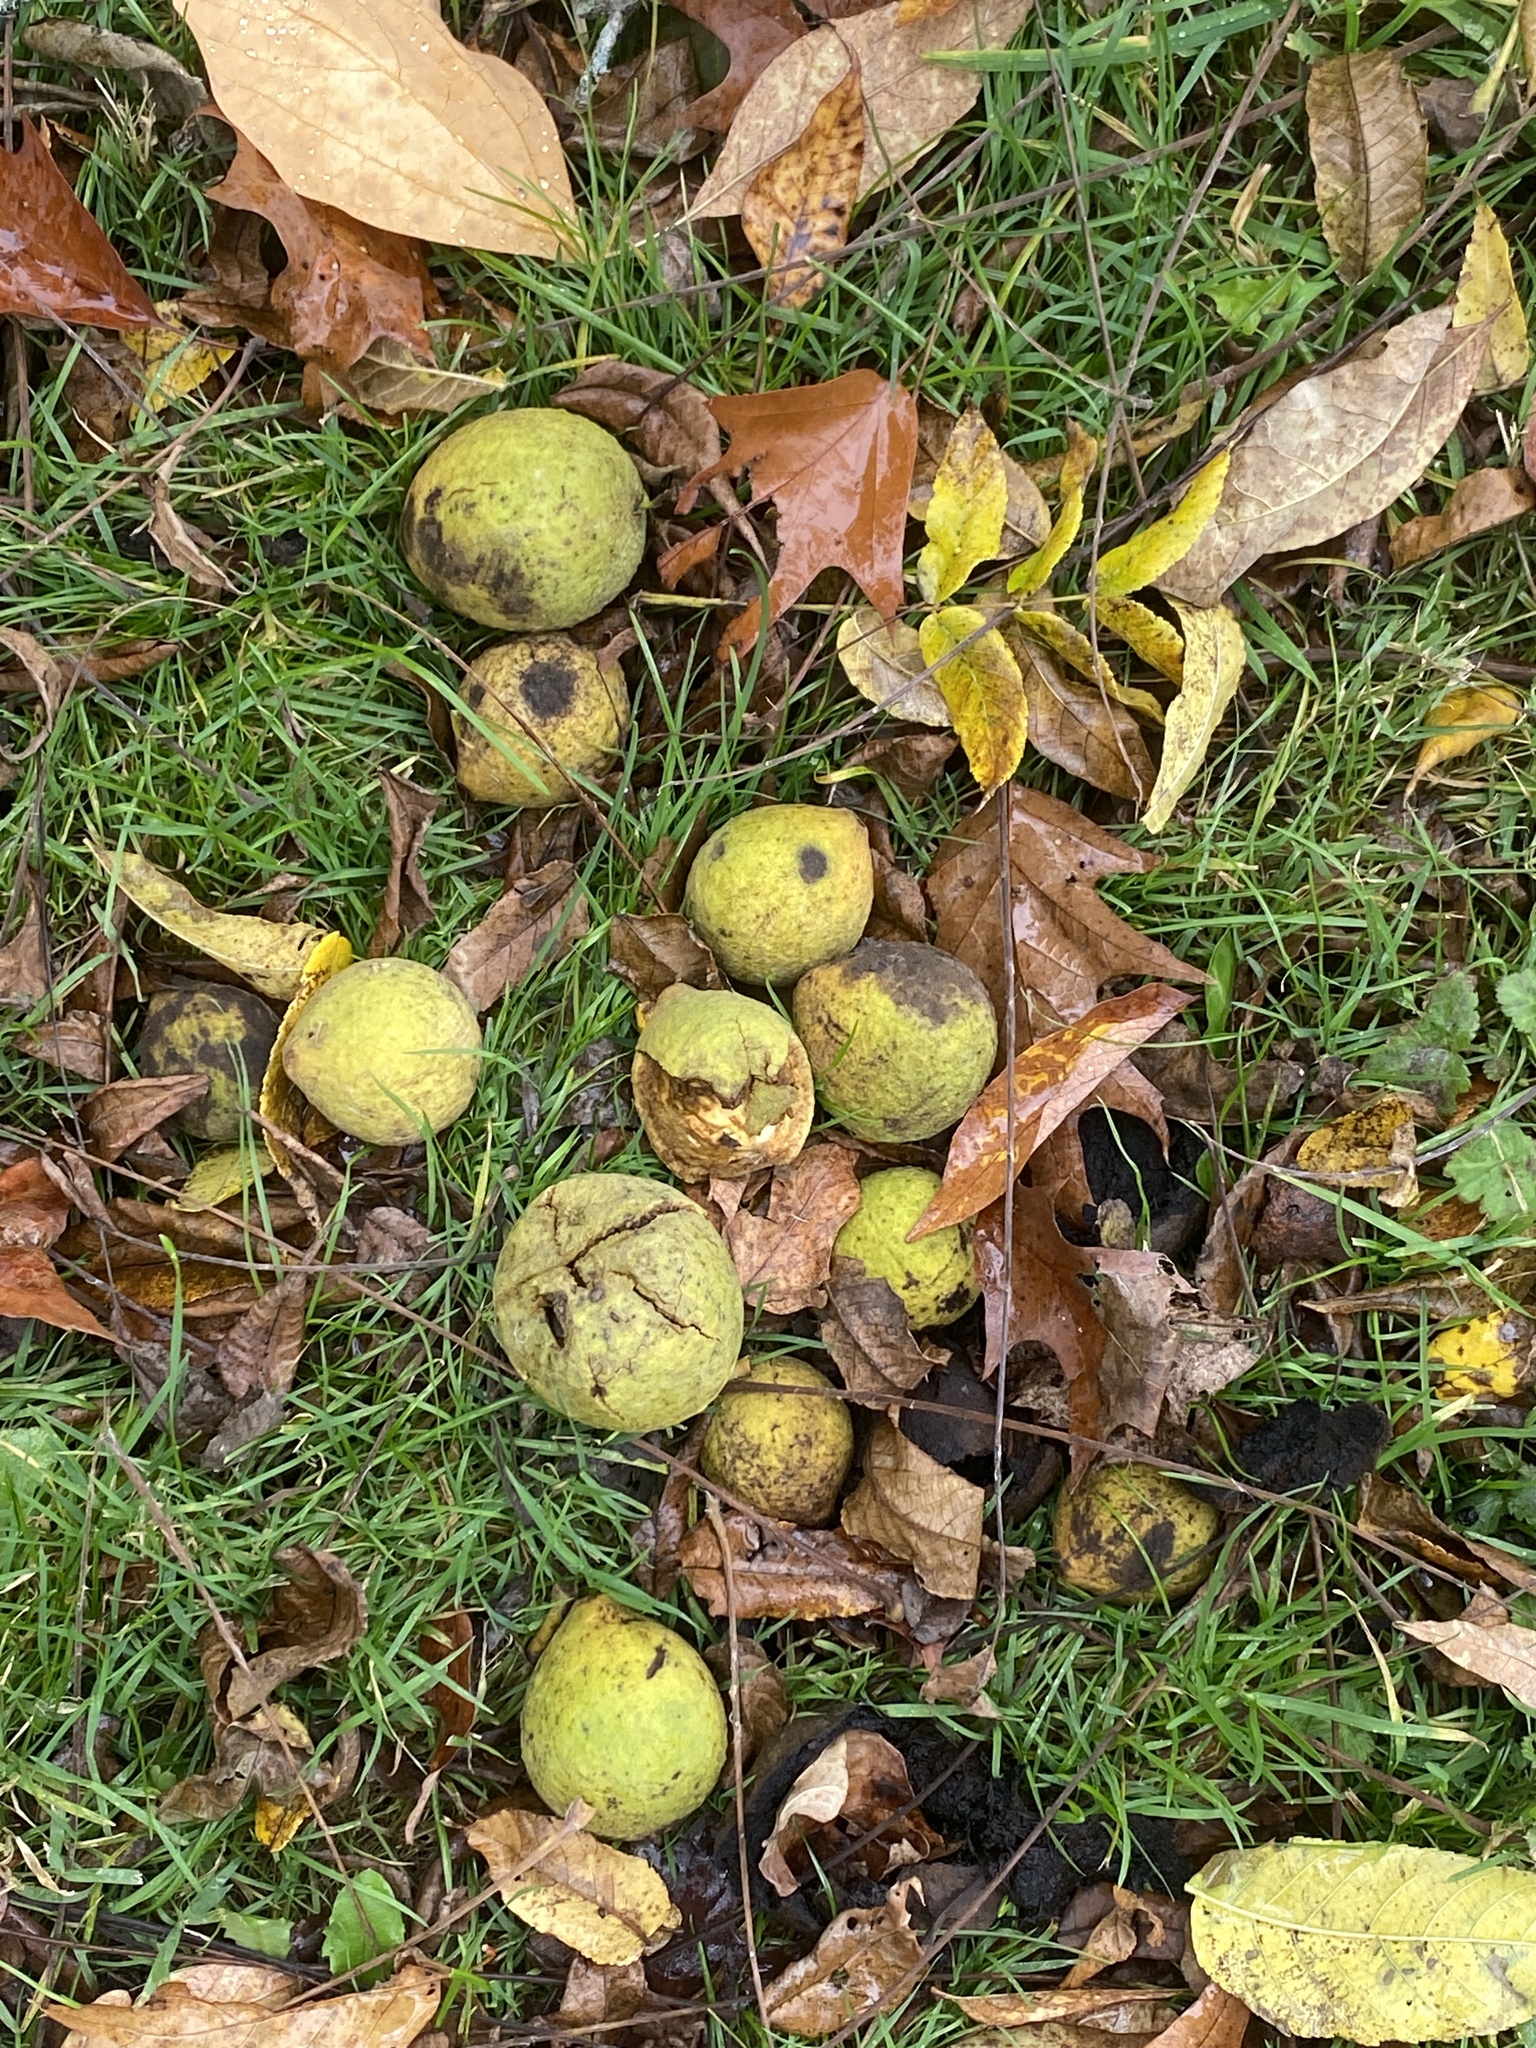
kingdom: Plantae
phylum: Tracheophyta
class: Magnoliopsida
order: Fagales
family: Juglandaceae
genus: Juglans
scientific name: Juglans nigra
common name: Black walnut
